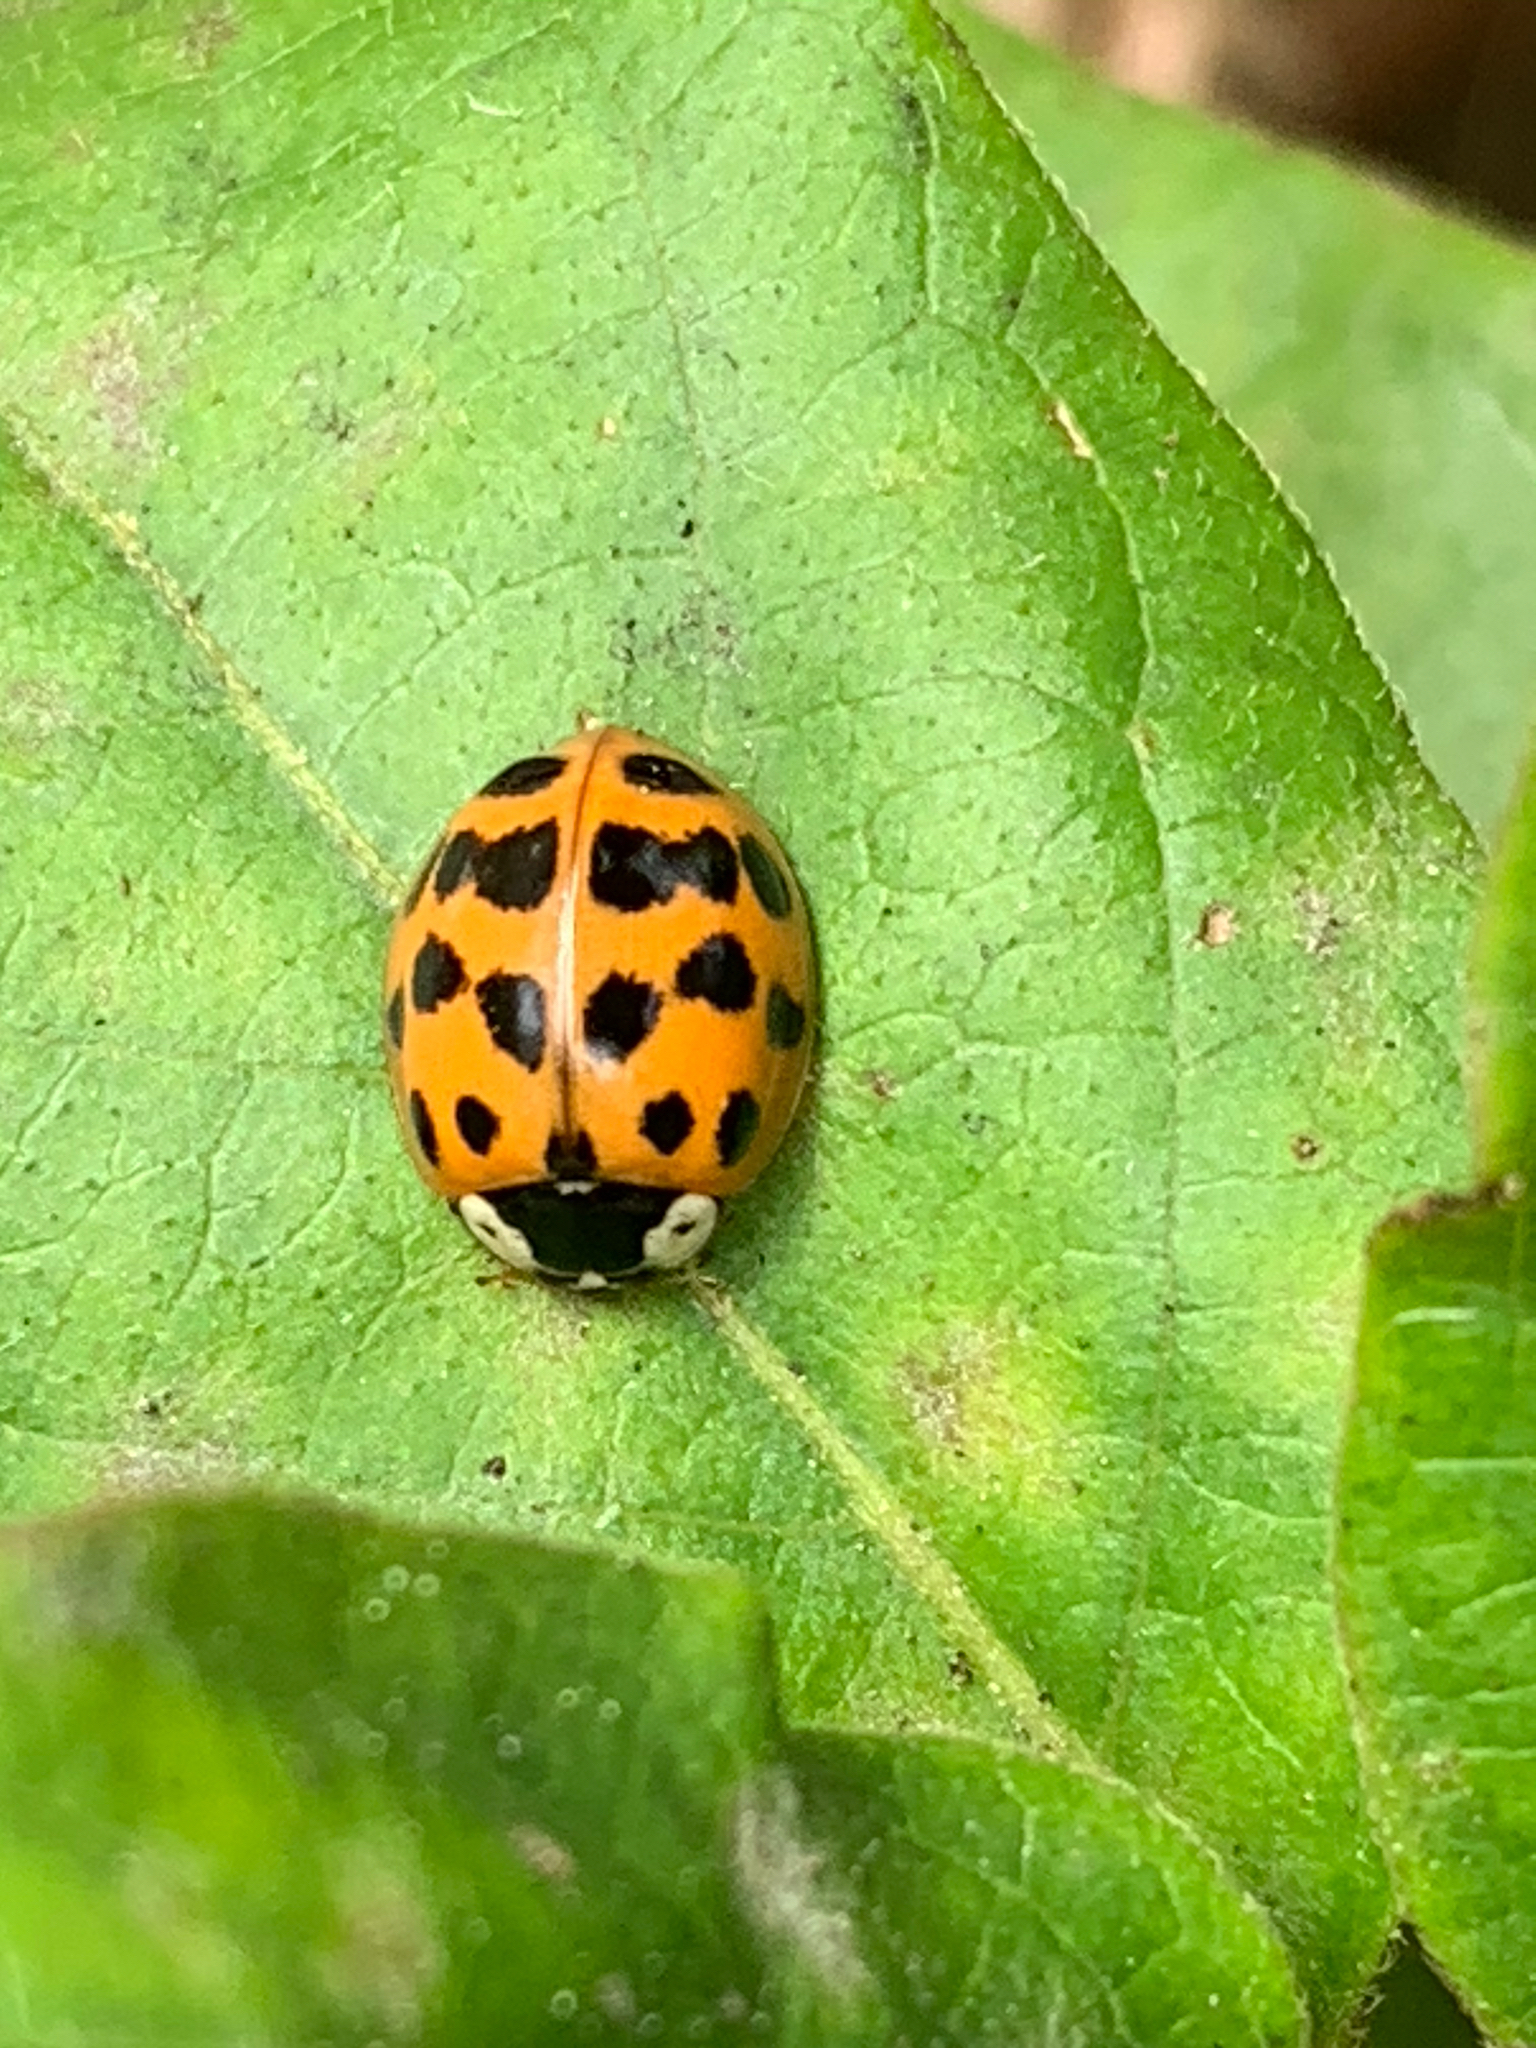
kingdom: Animalia
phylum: Arthropoda
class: Insecta
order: Coleoptera
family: Coccinellidae
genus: Harmonia
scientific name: Harmonia axyridis
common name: Harlequin ladybird
